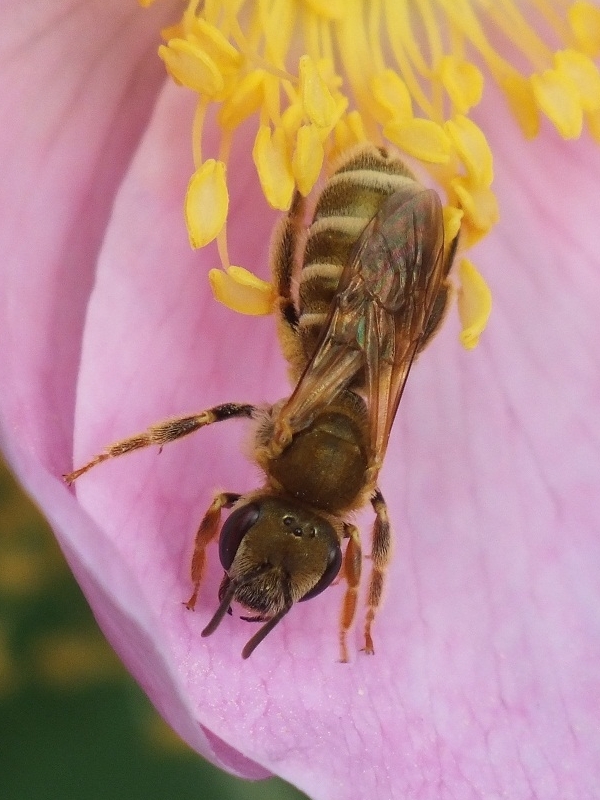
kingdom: Animalia
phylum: Arthropoda
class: Insecta
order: Hymenoptera
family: Halictidae
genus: Halictus
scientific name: Halictus subauratus
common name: Golden furrow bee
